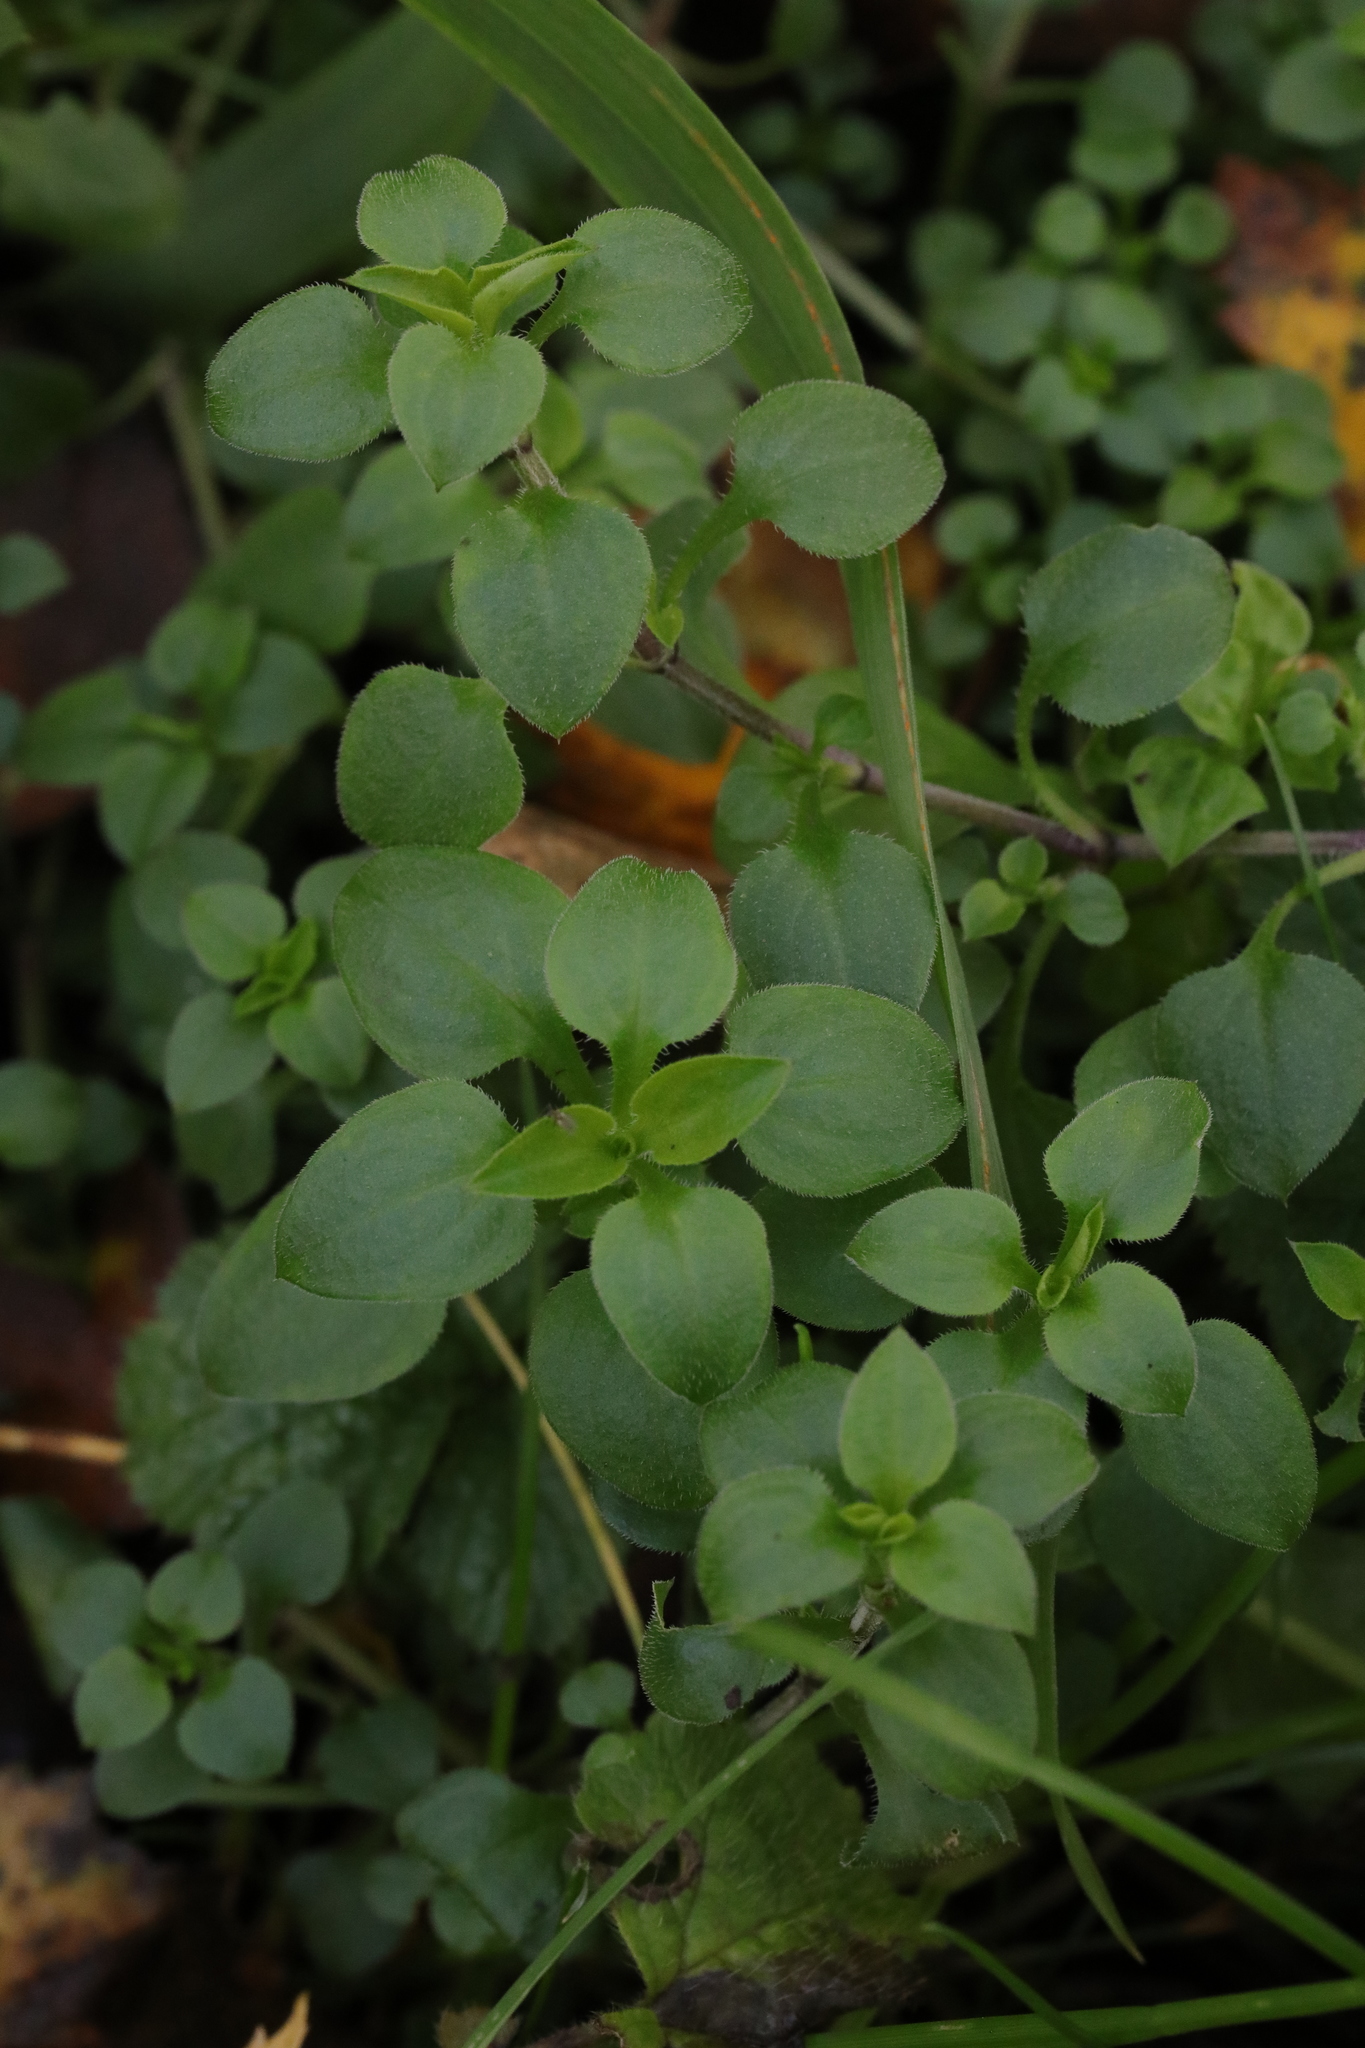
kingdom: Plantae
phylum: Tracheophyta
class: Magnoliopsida
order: Caryophyllales
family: Caryophyllaceae
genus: Stellaria
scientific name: Stellaria media
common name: Common chickweed
